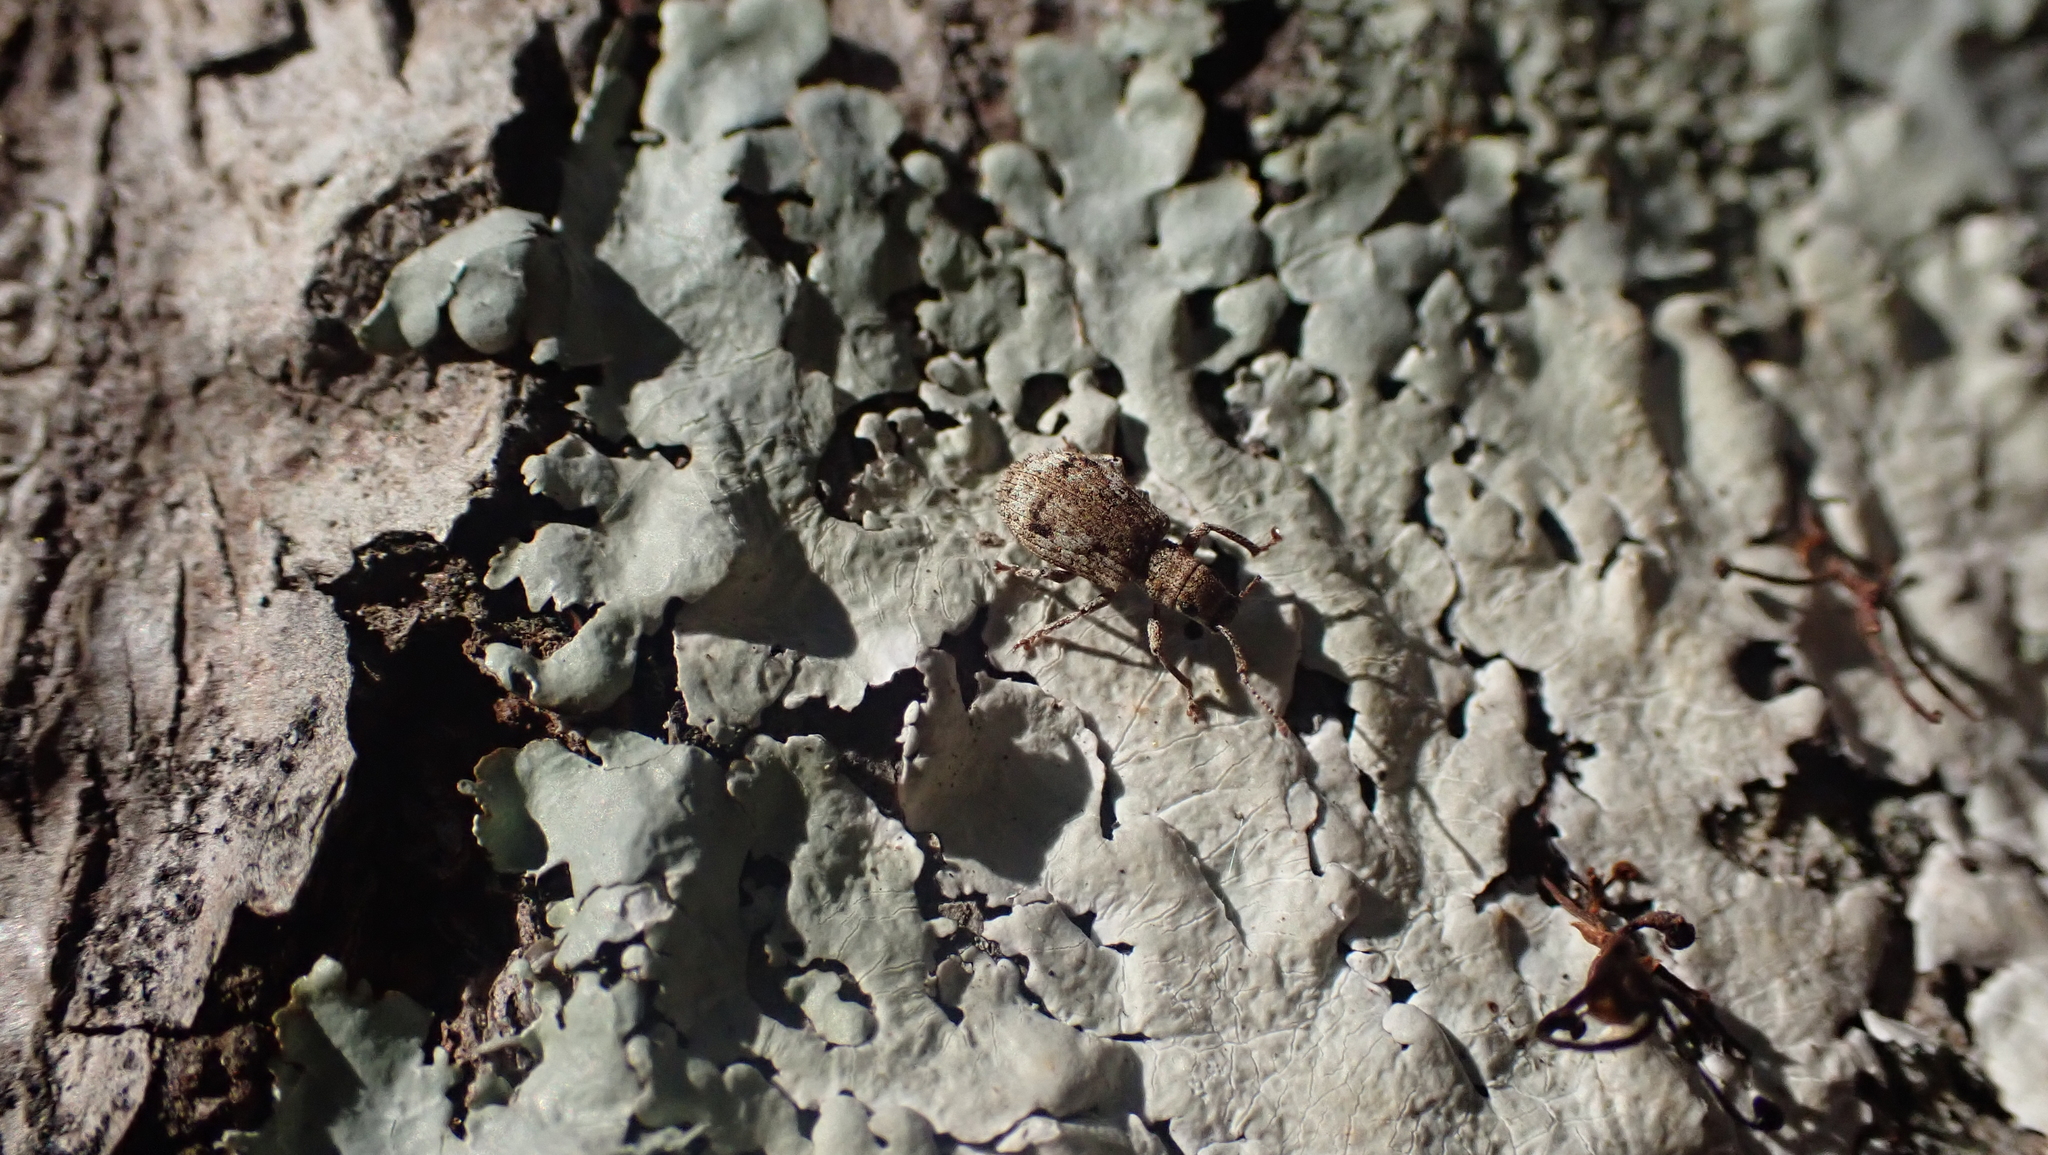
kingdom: Animalia
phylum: Arthropoda
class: Insecta
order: Coleoptera
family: Curculionidae
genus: Pseudoedophrys
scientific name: Pseudoedophrys hilleri
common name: Weevil
